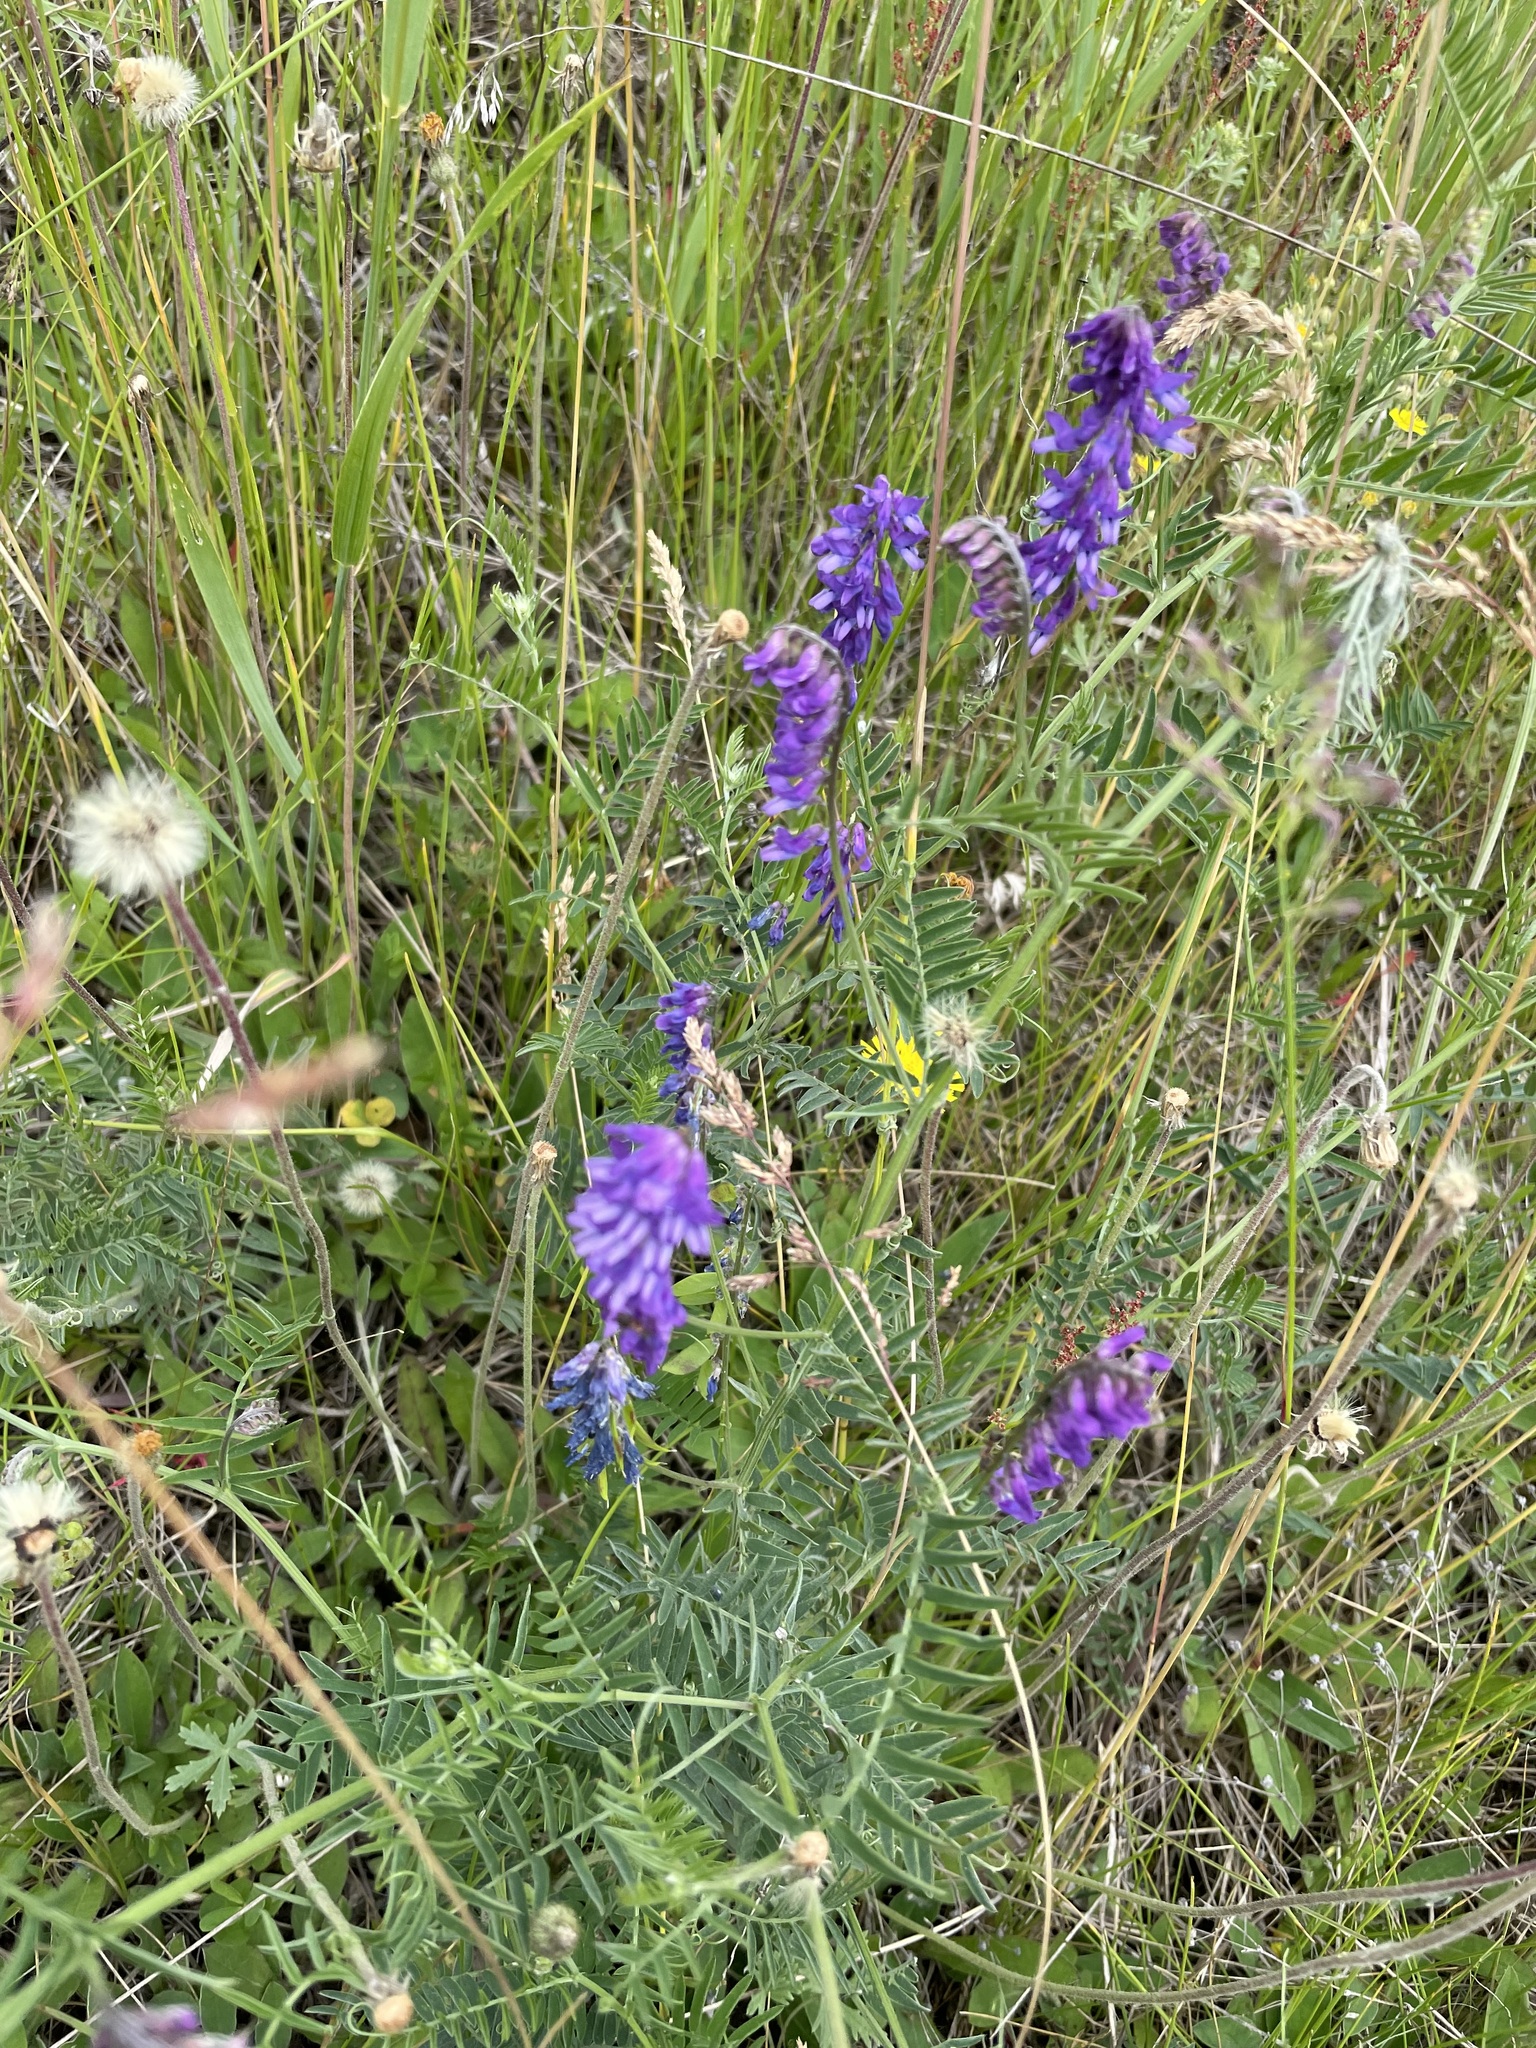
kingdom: Plantae
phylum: Tracheophyta
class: Magnoliopsida
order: Fabales
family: Fabaceae
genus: Vicia
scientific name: Vicia cracca
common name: Bird vetch
